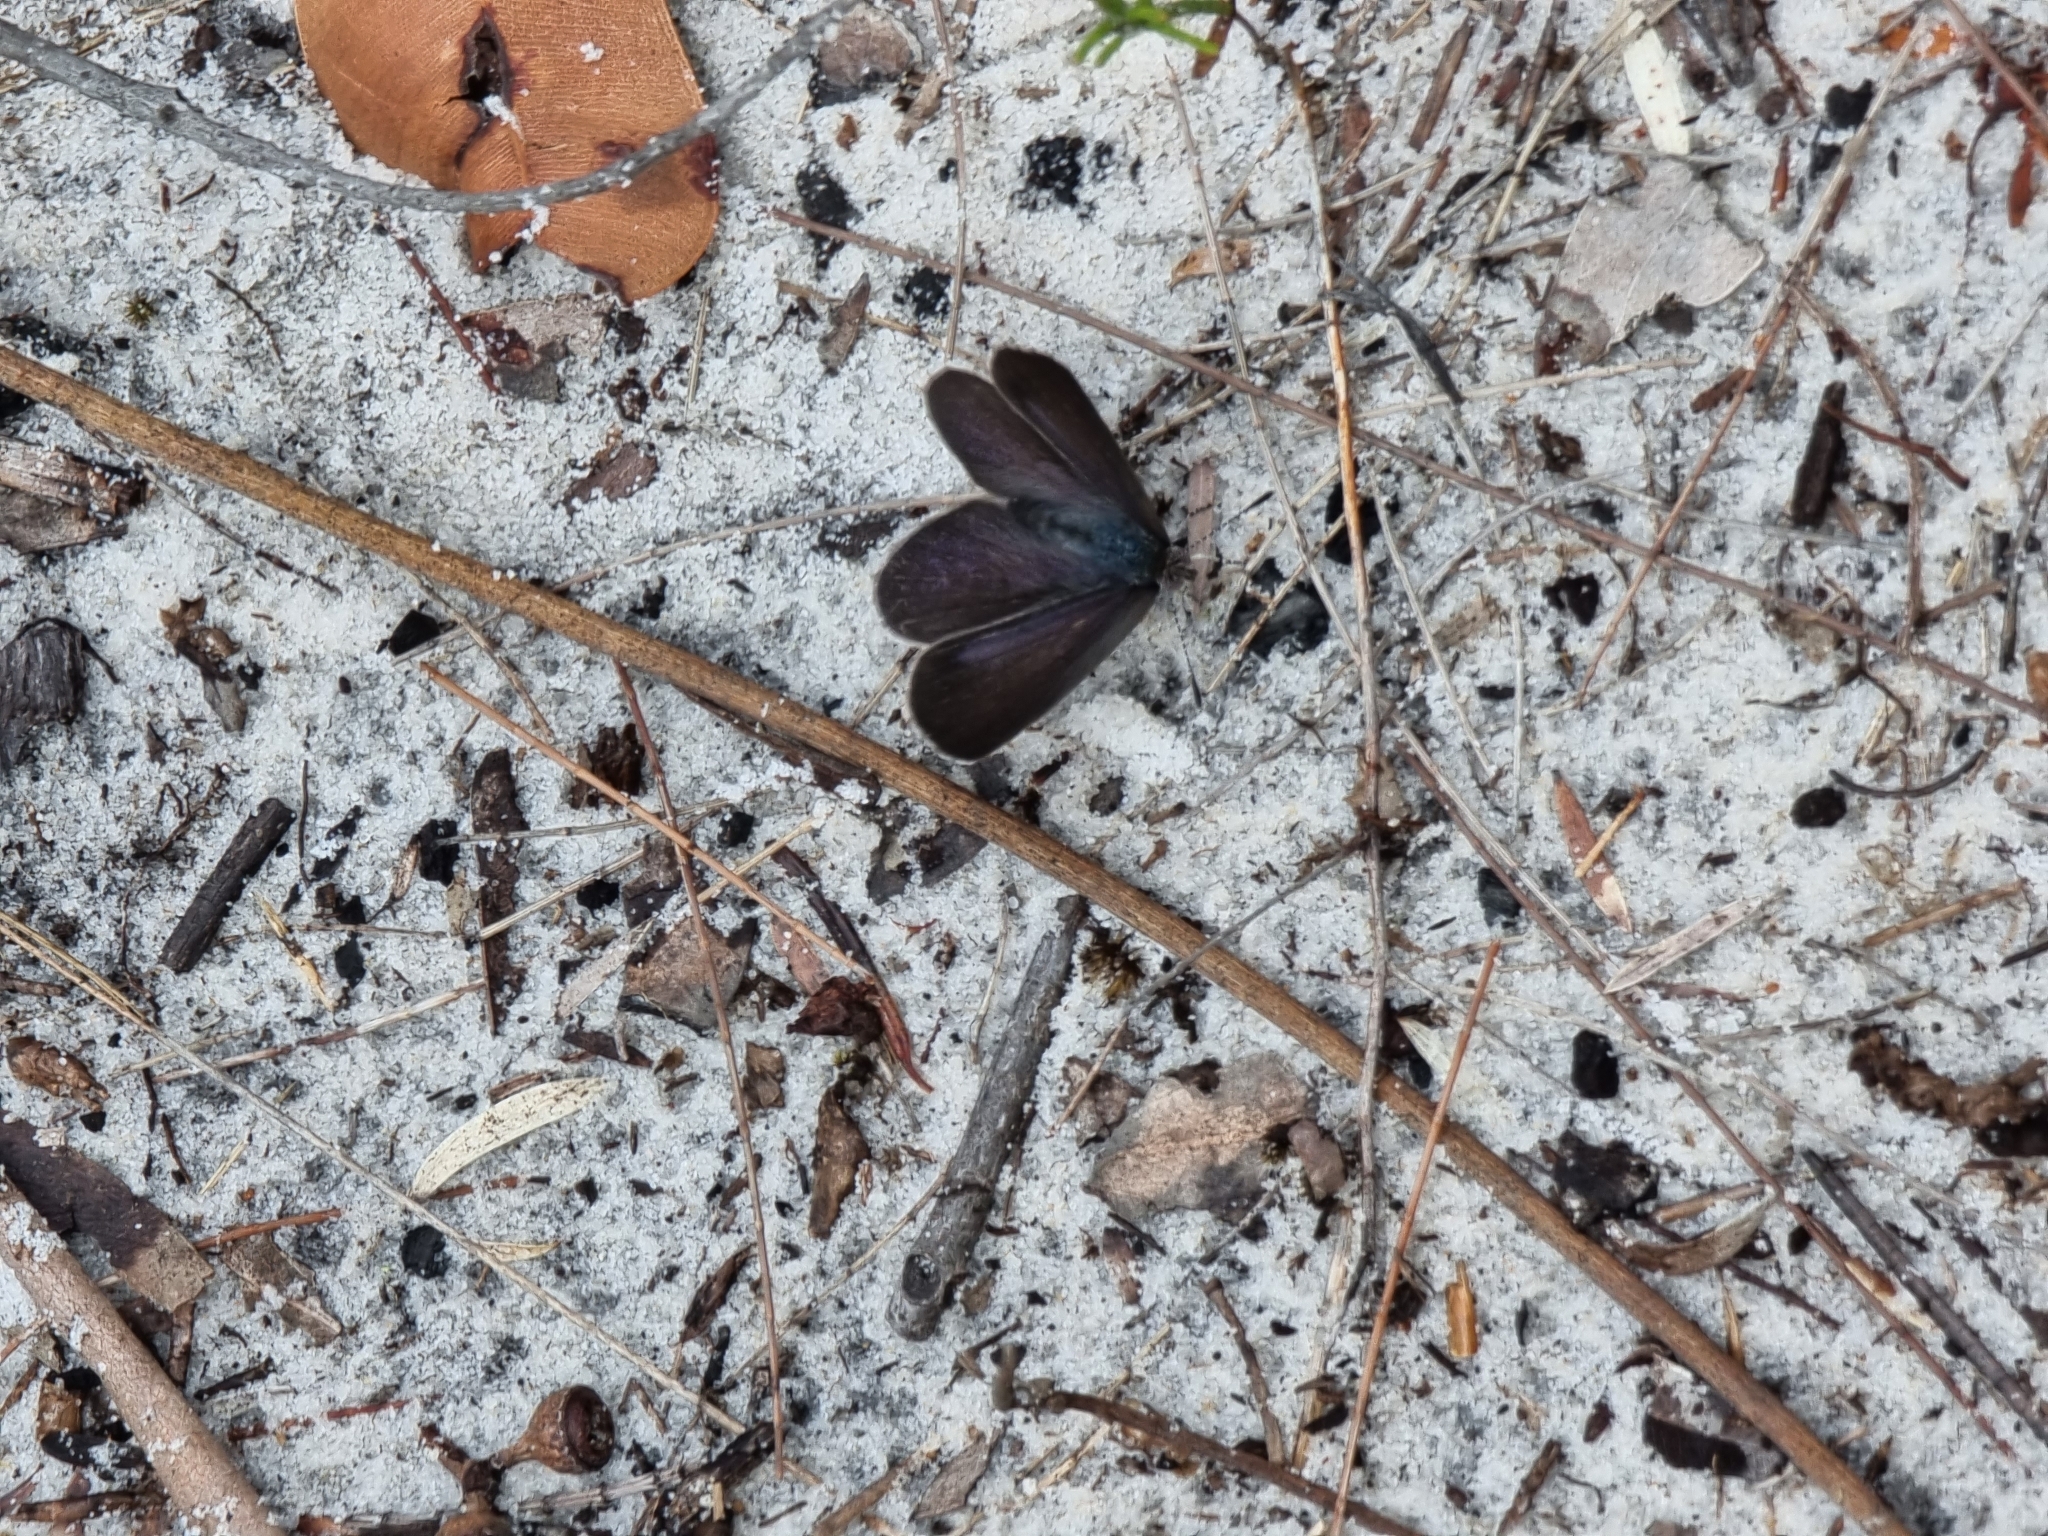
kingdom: Animalia
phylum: Arthropoda
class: Insecta
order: Lepidoptera
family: Lycaenidae
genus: Candalides
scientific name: Candalides
